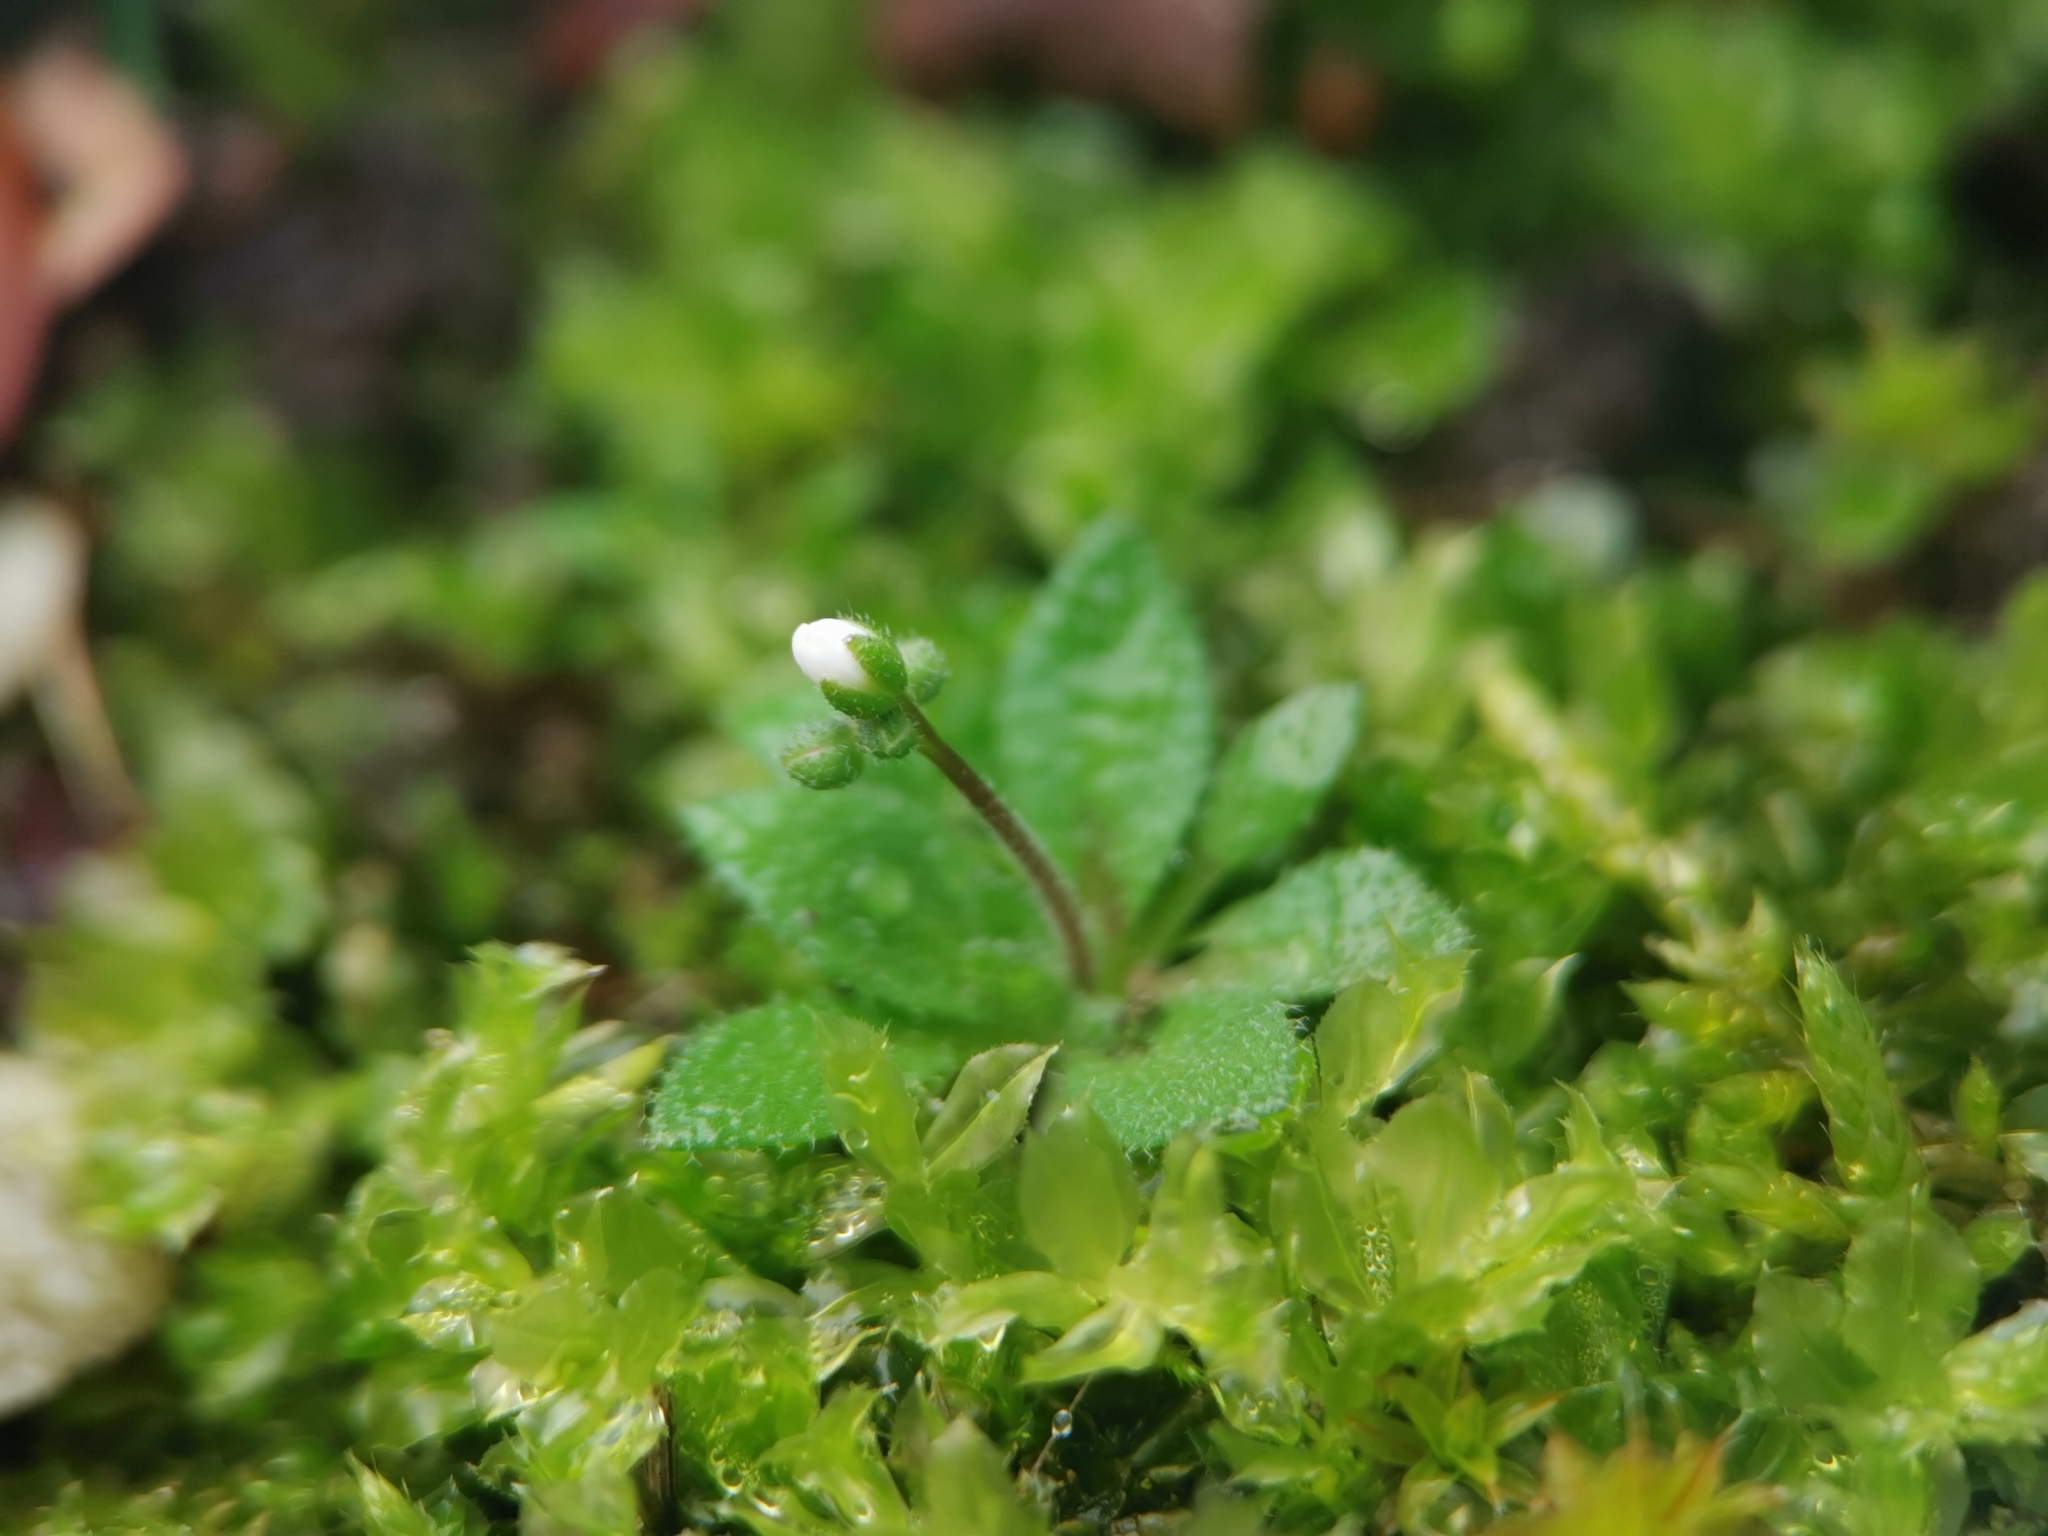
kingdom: Plantae
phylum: Tracheophyta
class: Magnoliopsida
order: Brassicales
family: Brassicaceae
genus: Draba
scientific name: Draba verna
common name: Spring draba
